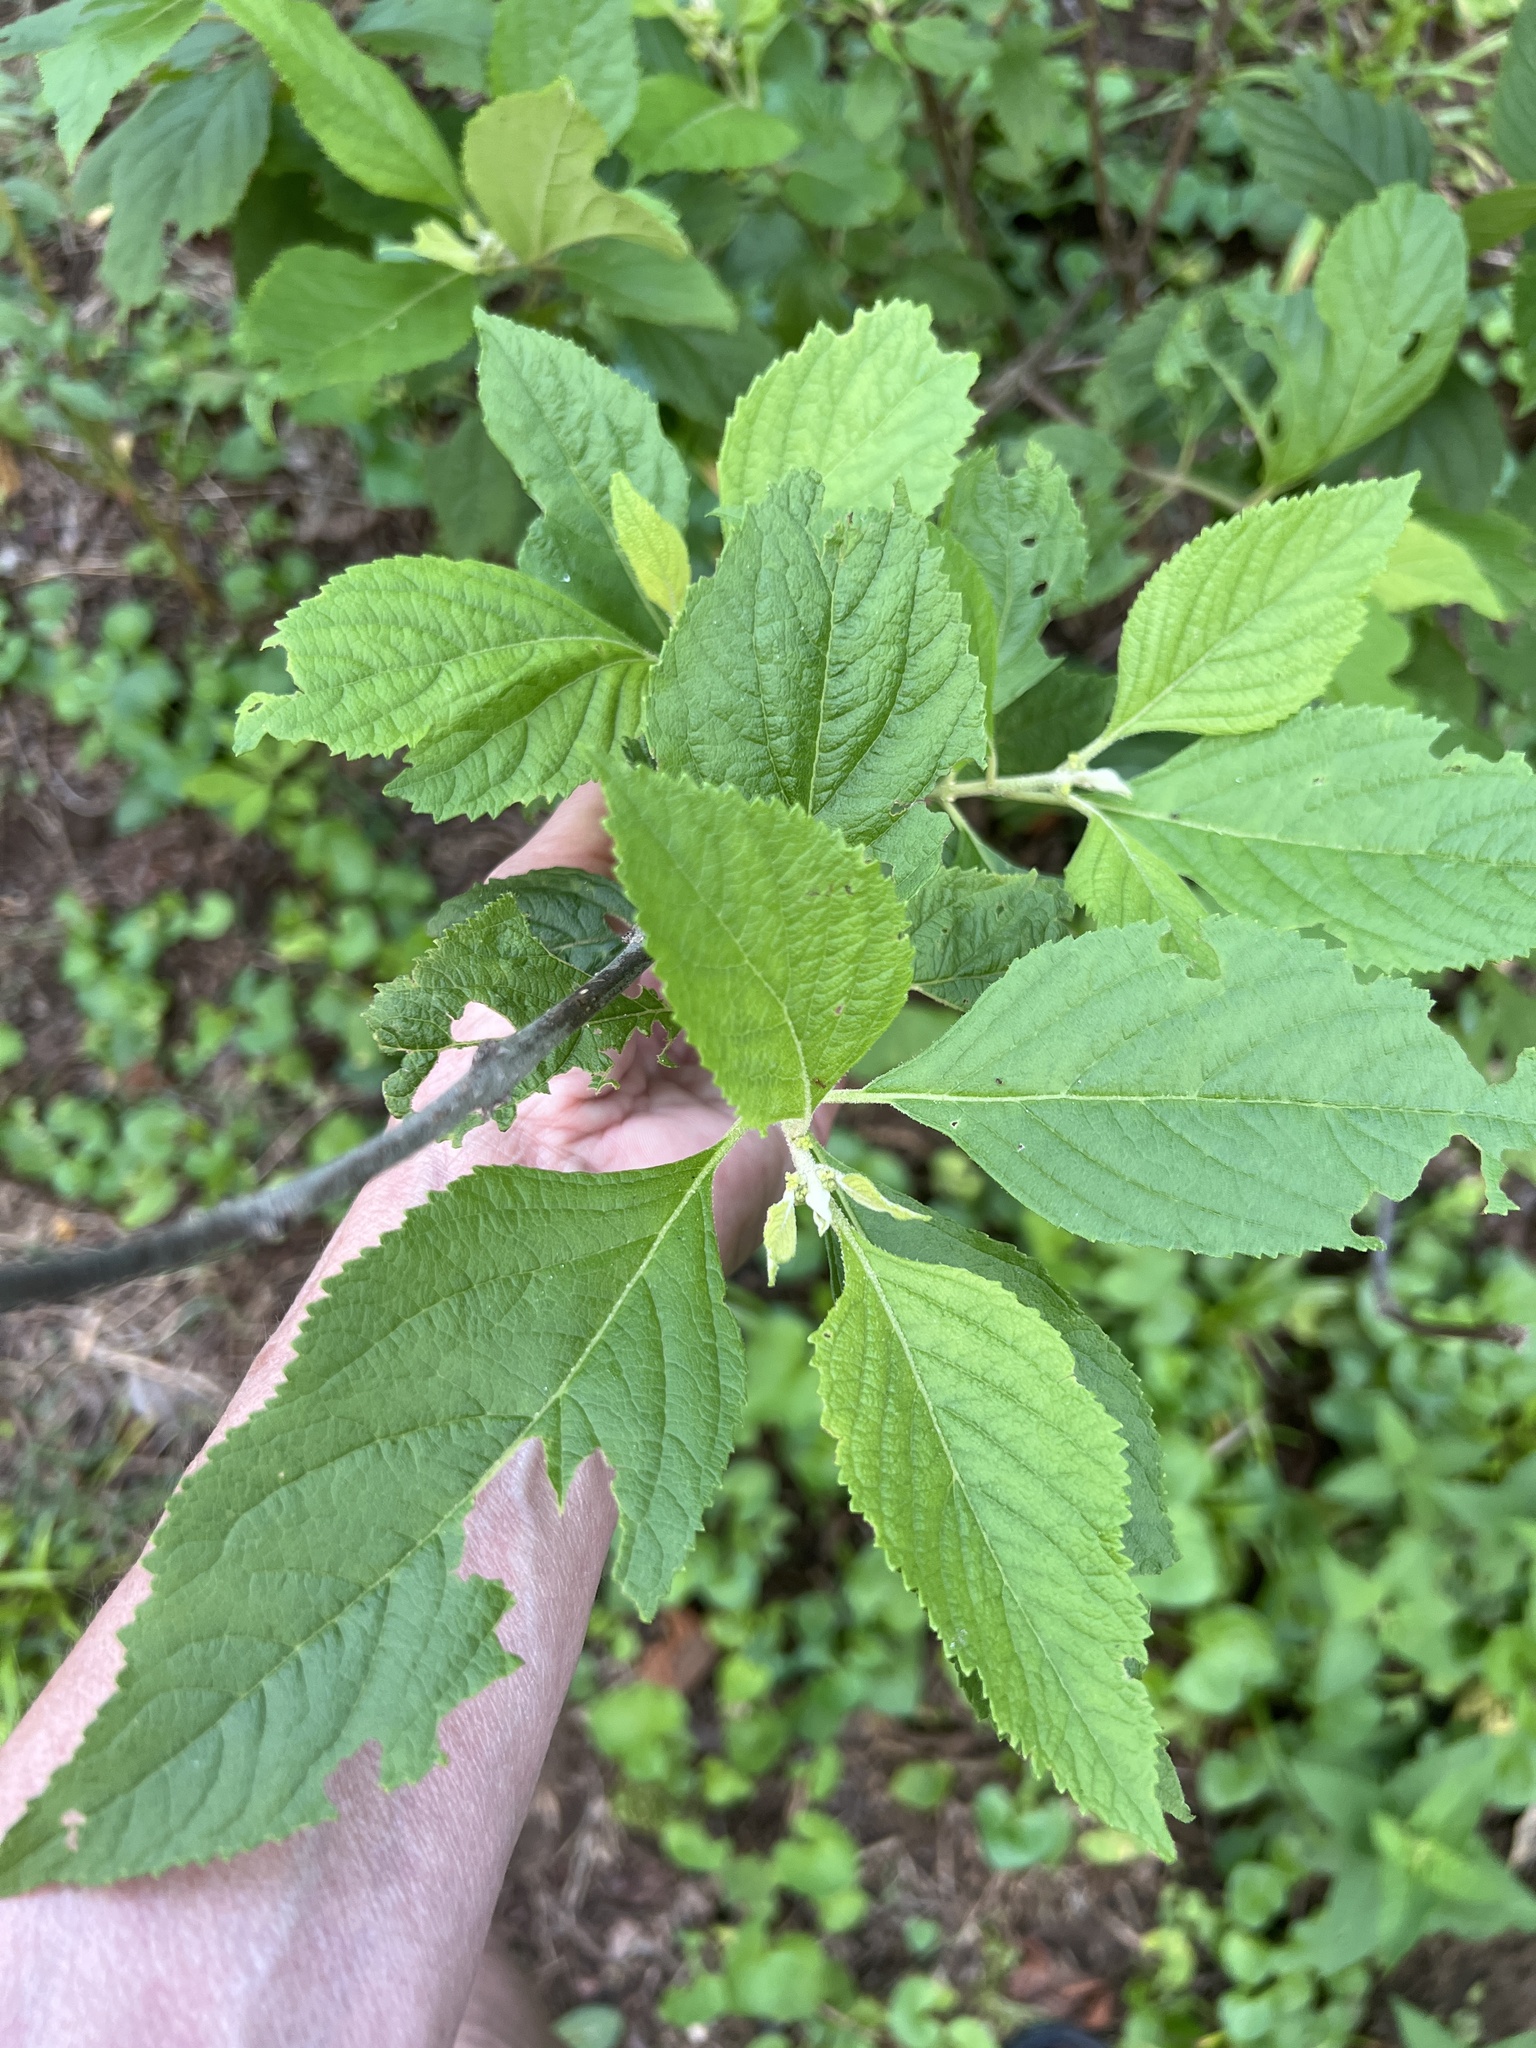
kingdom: Plantae
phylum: Tracheophyta
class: Magnoliopsida
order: Lamiales
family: Lamiaceae
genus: Callicarpa
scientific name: Callicarpa americana
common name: American beautyberry
